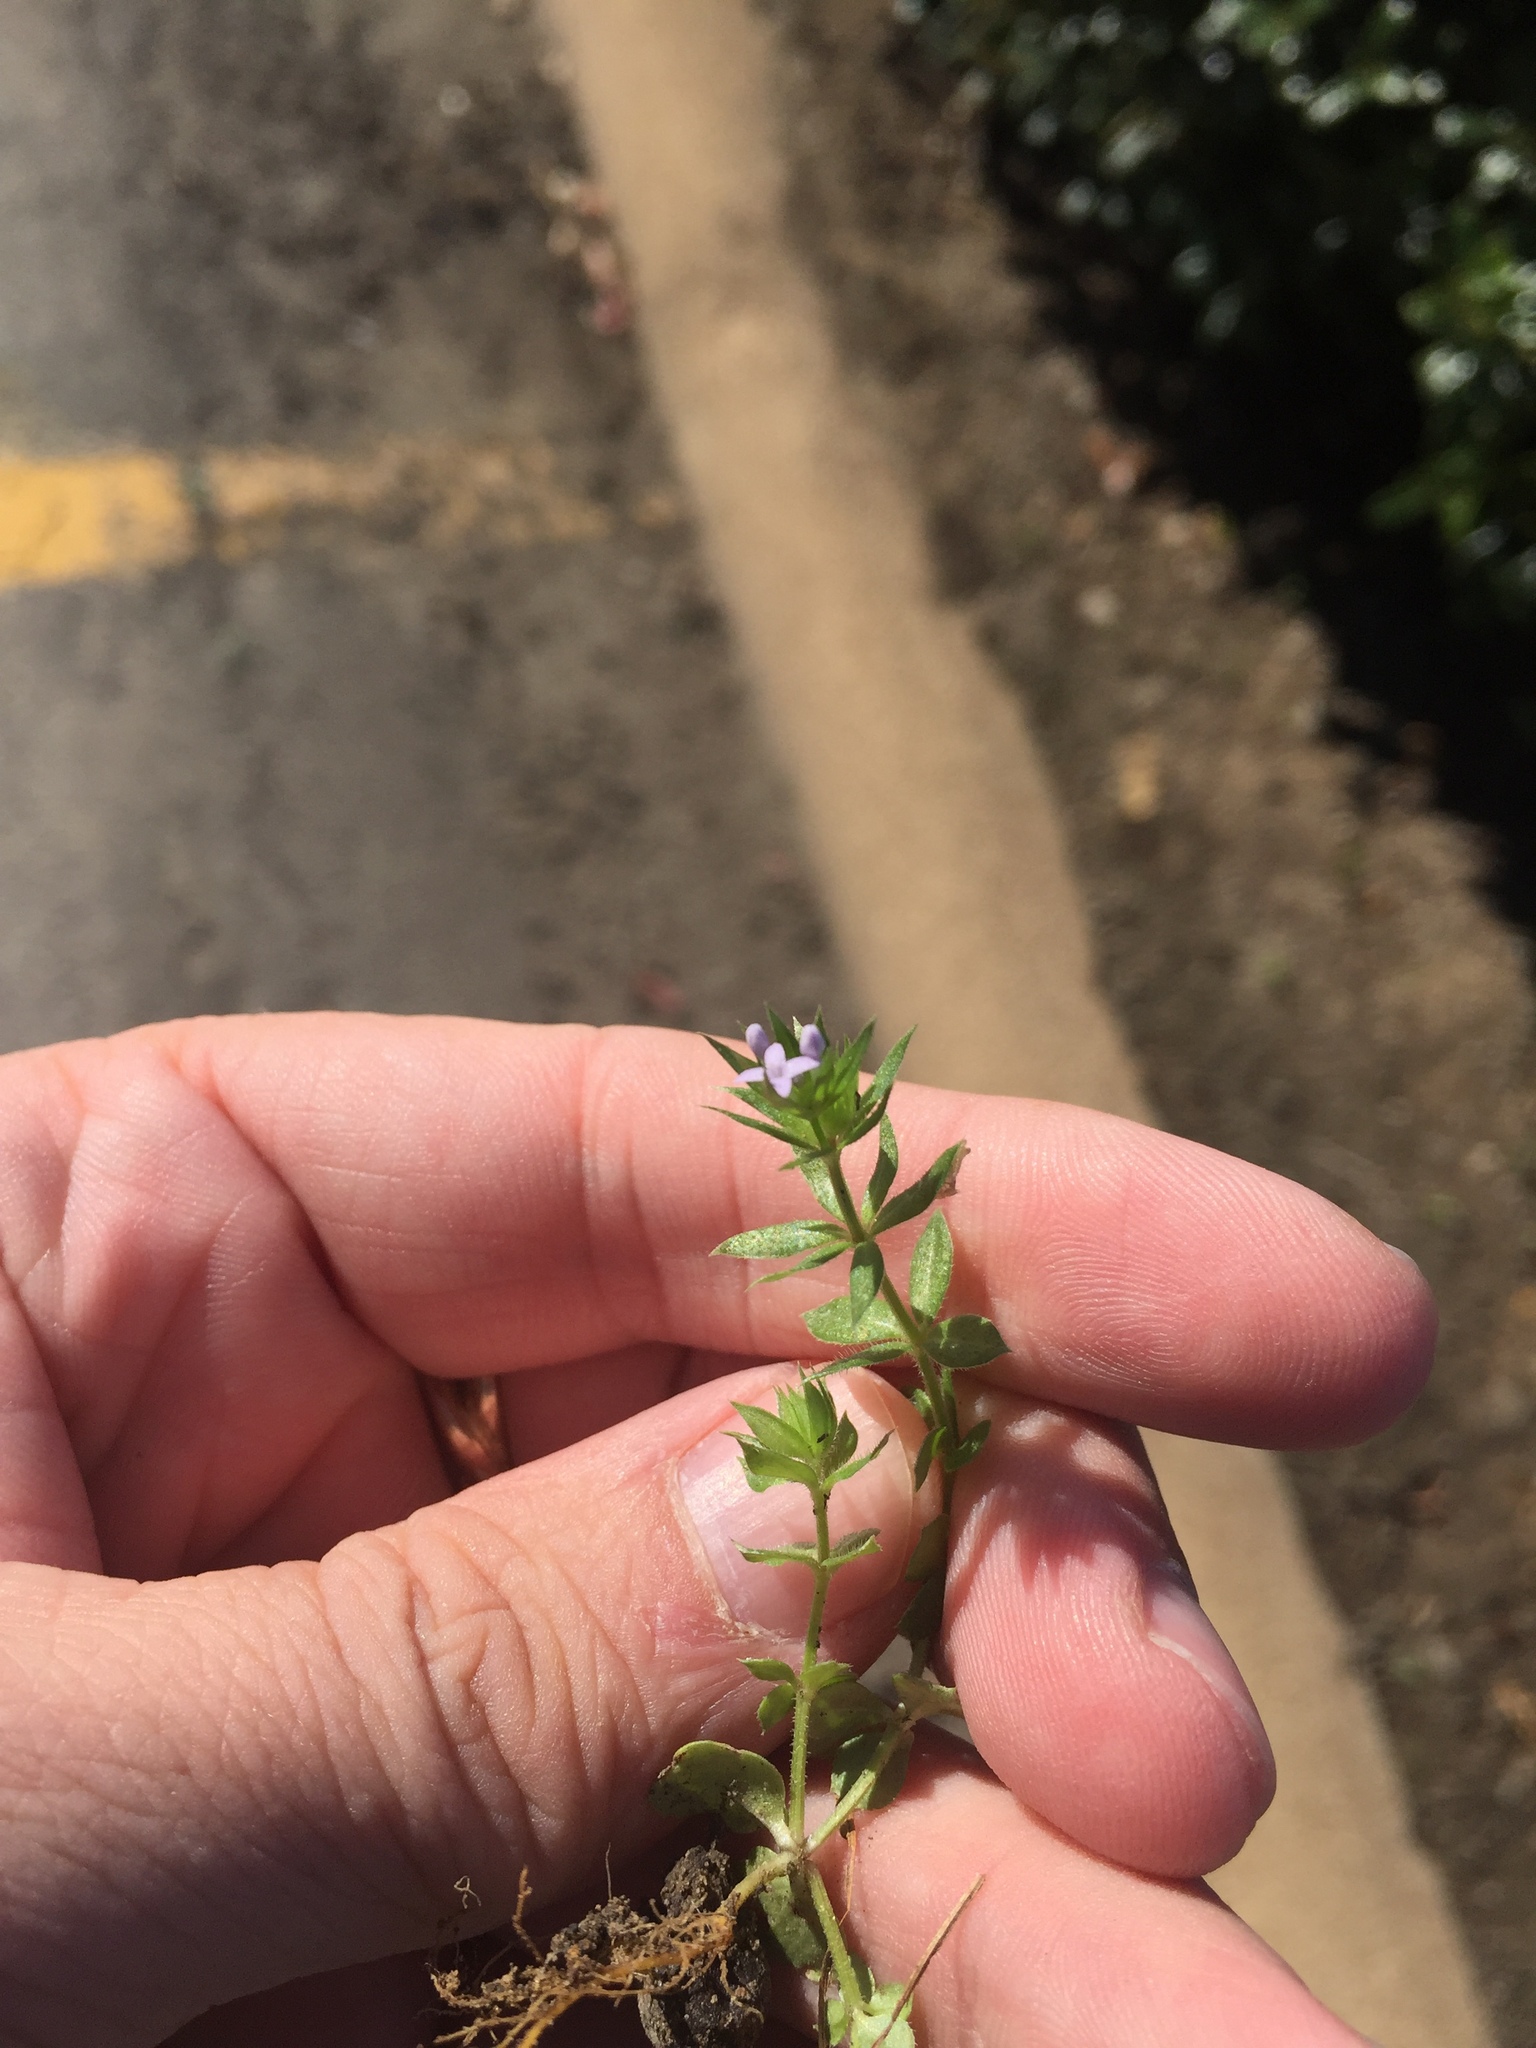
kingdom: Plantae
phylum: Tracheophyta
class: Magnoliopsida
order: Gentianales
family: Rubiaceae
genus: Sherardia
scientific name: Sherardia arvensis
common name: Field madder
